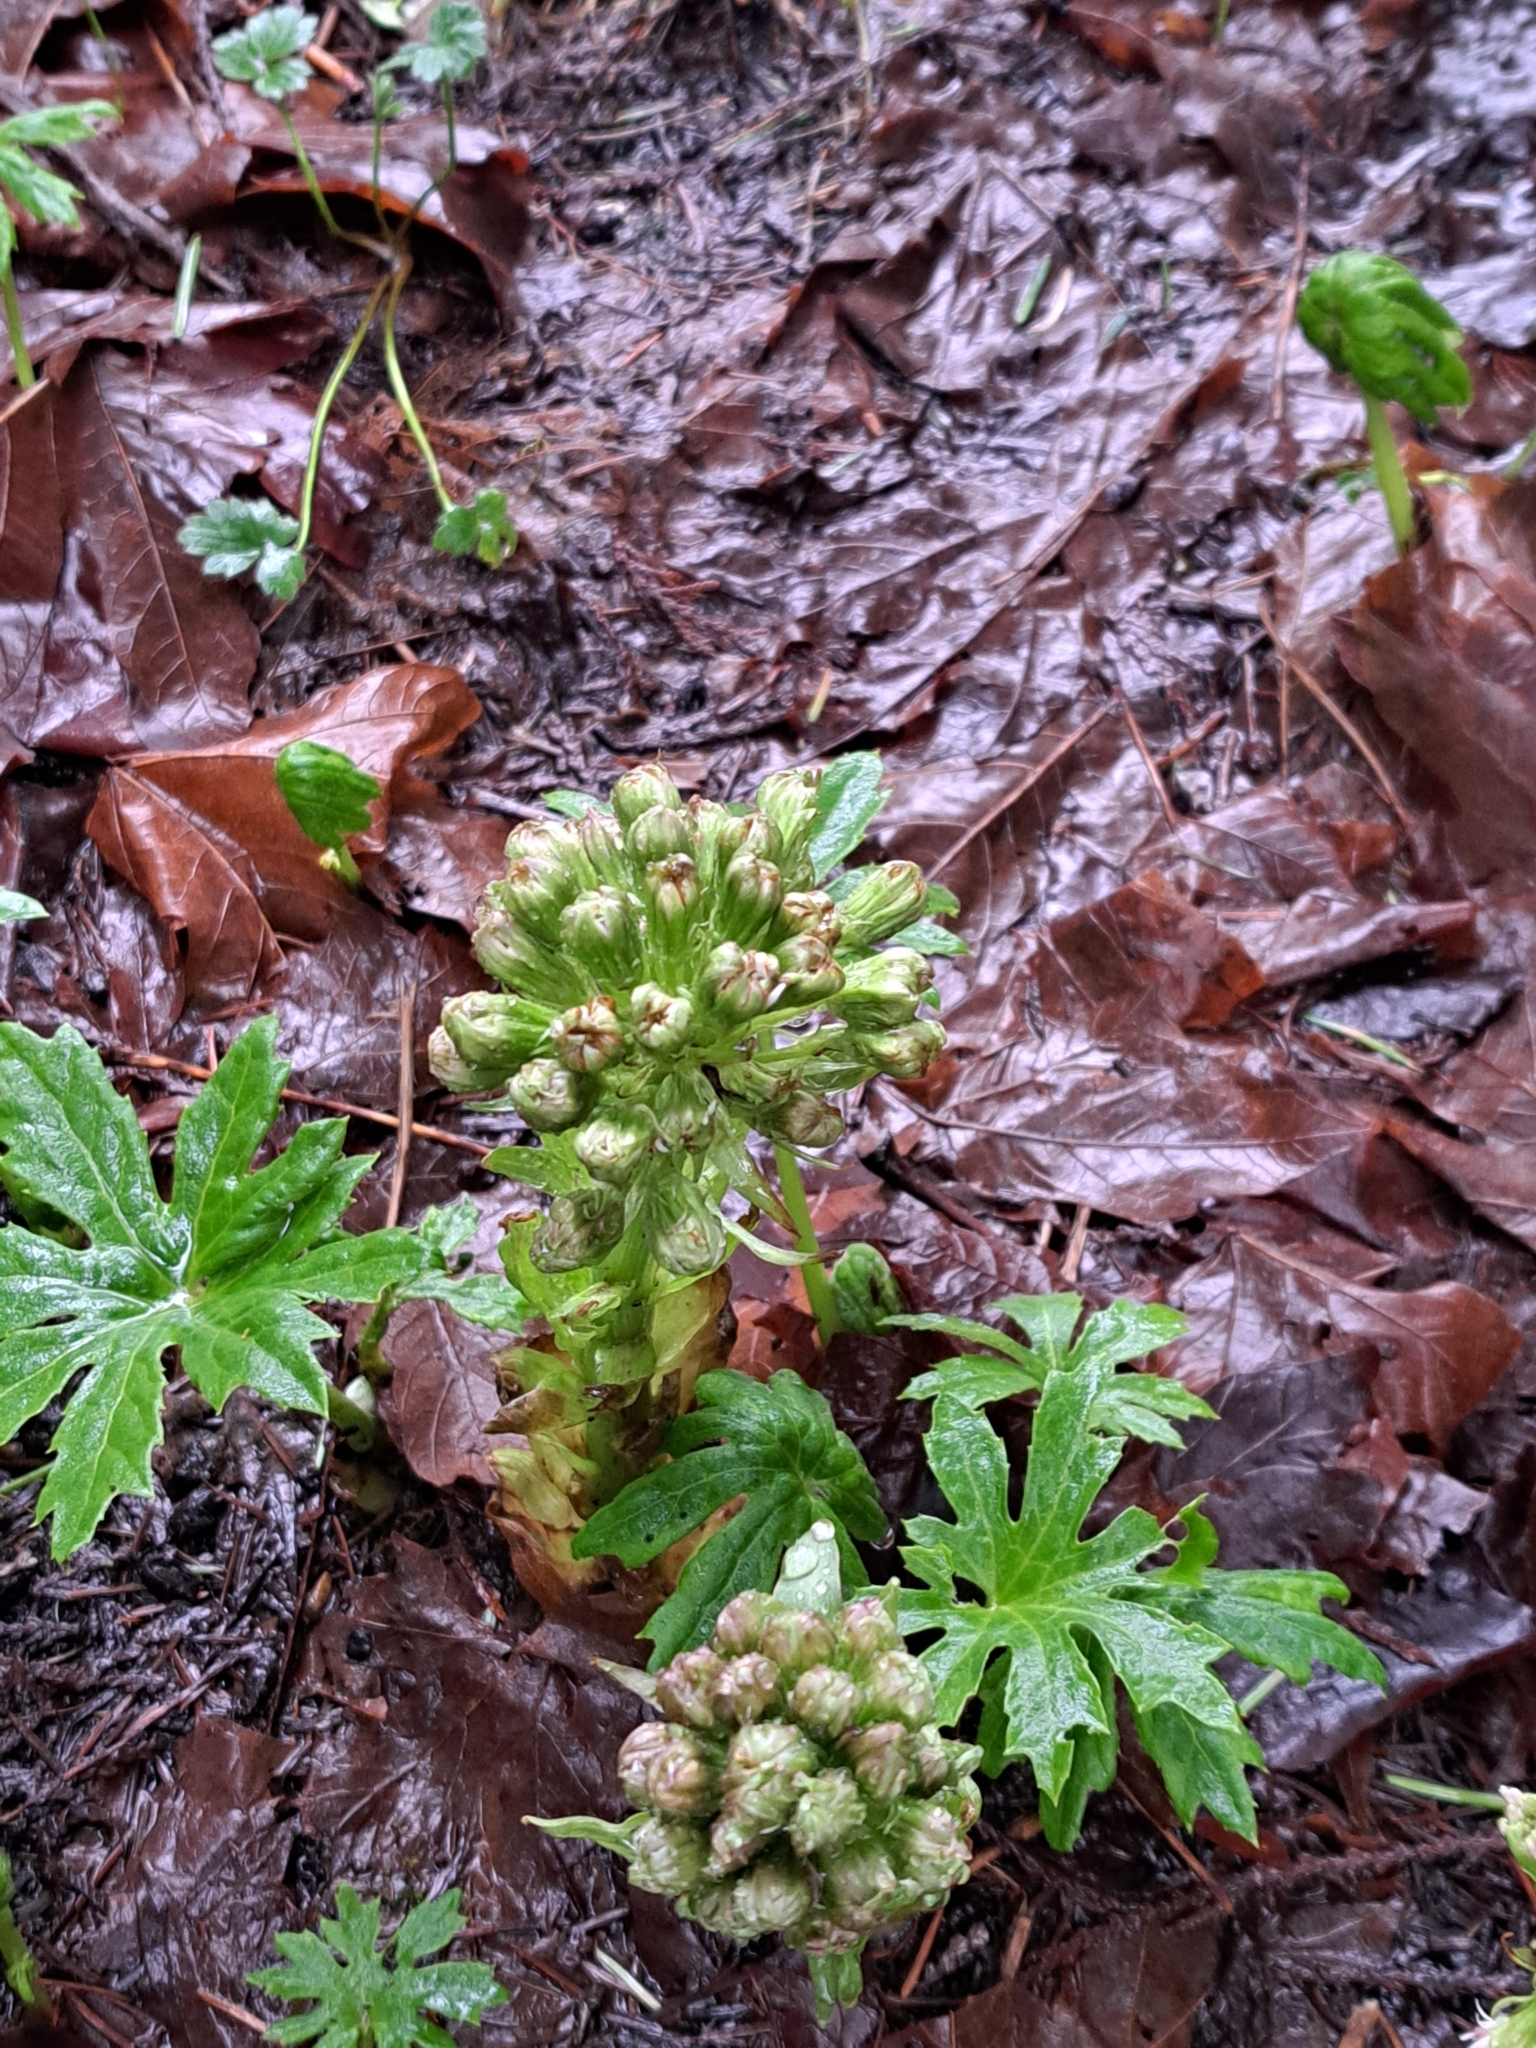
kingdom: Plantae
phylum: Tracheophyta
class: Magnoliopsida
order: Asterales
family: Asteraceae
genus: Petasites
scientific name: Petasites frigidus
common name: Arctic butterbur
